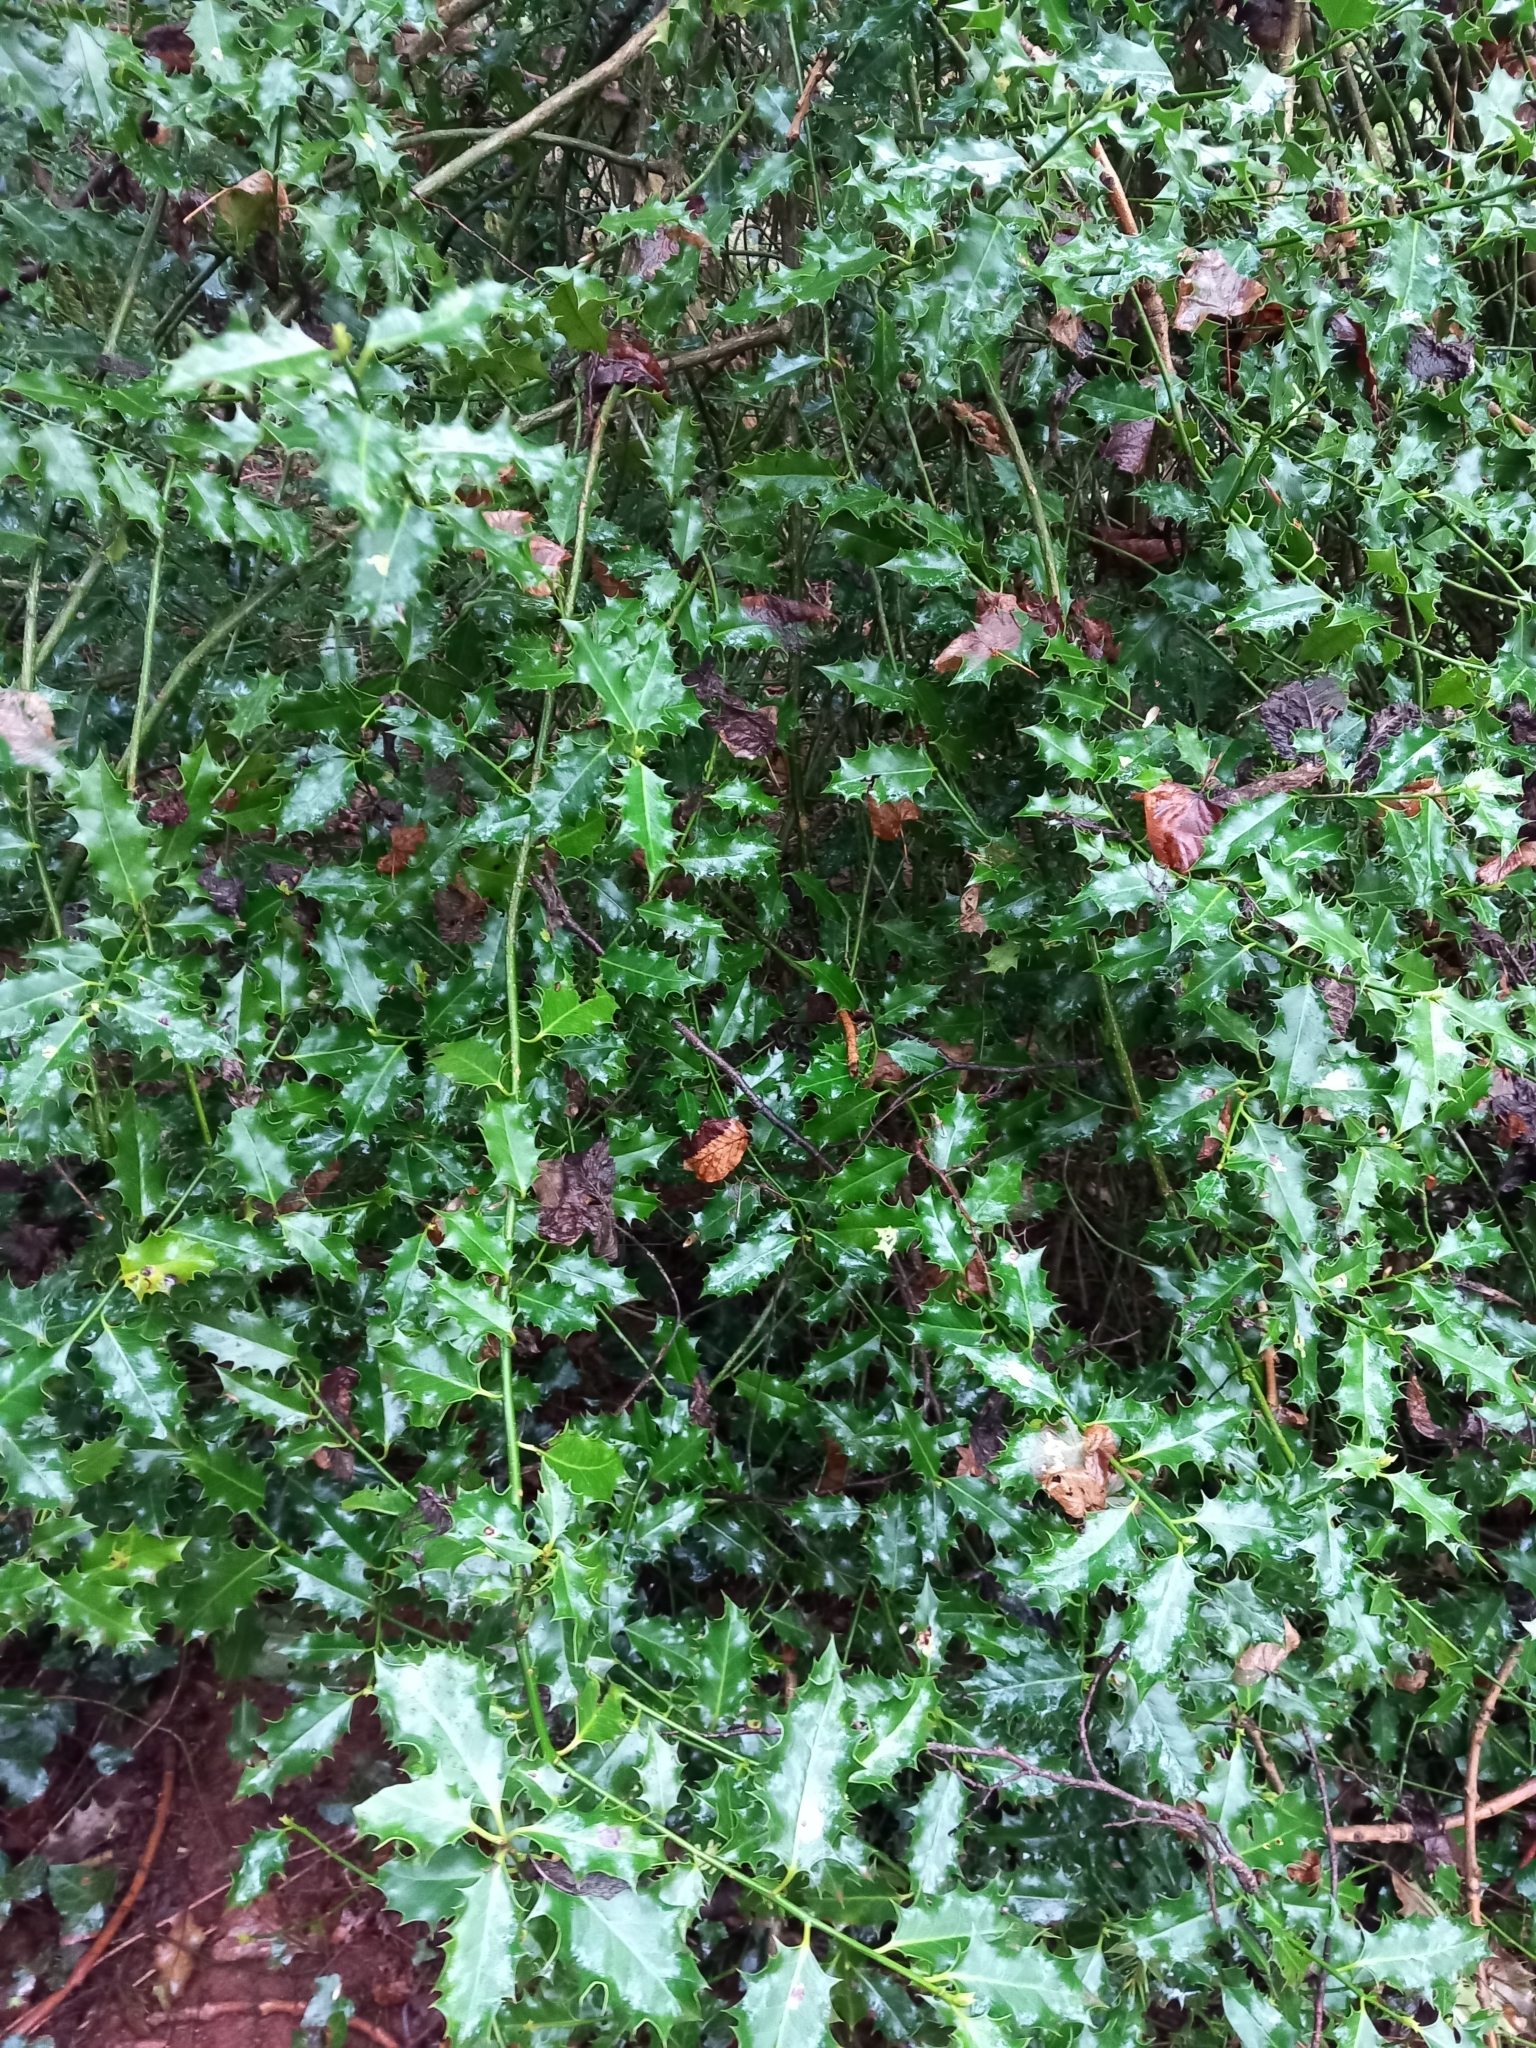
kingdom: Plantae
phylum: Tracheophyta
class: Magnoliopsida
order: Aquifoliales
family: Aquifoliaceae
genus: Ilex
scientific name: Ilex aquifolium
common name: English holly
